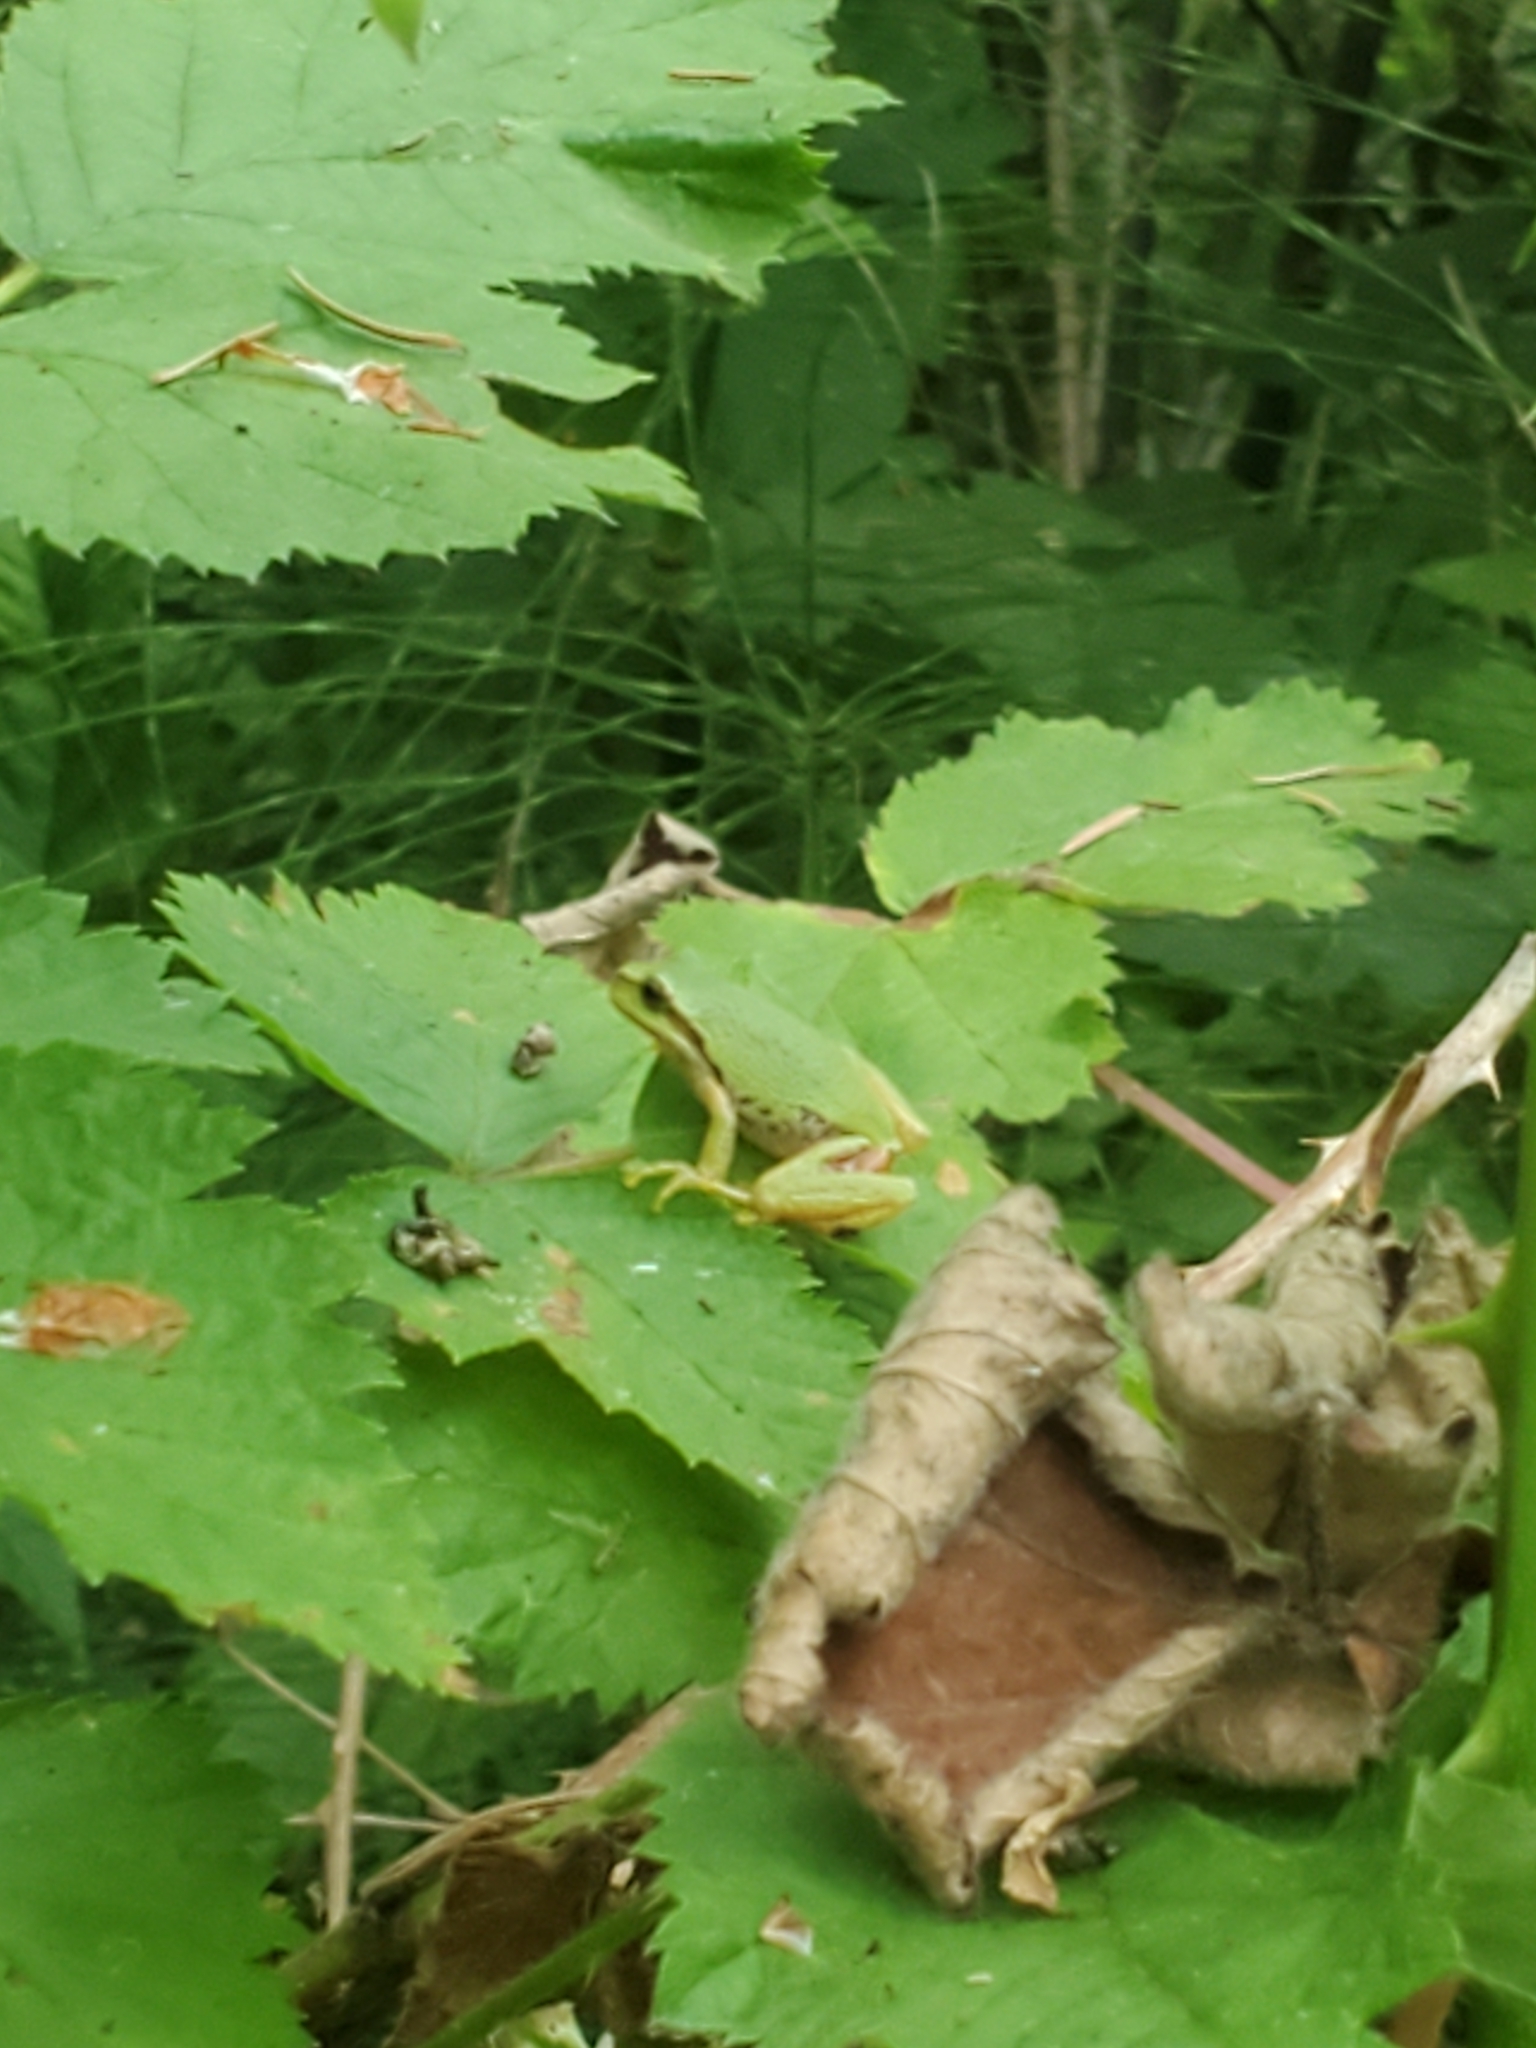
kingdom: Animalia
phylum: Chordata
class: Amphibia
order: Anura
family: Hylidae
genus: Pseudacris
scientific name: Pseudacris regilla
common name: Pacific chorus frog
